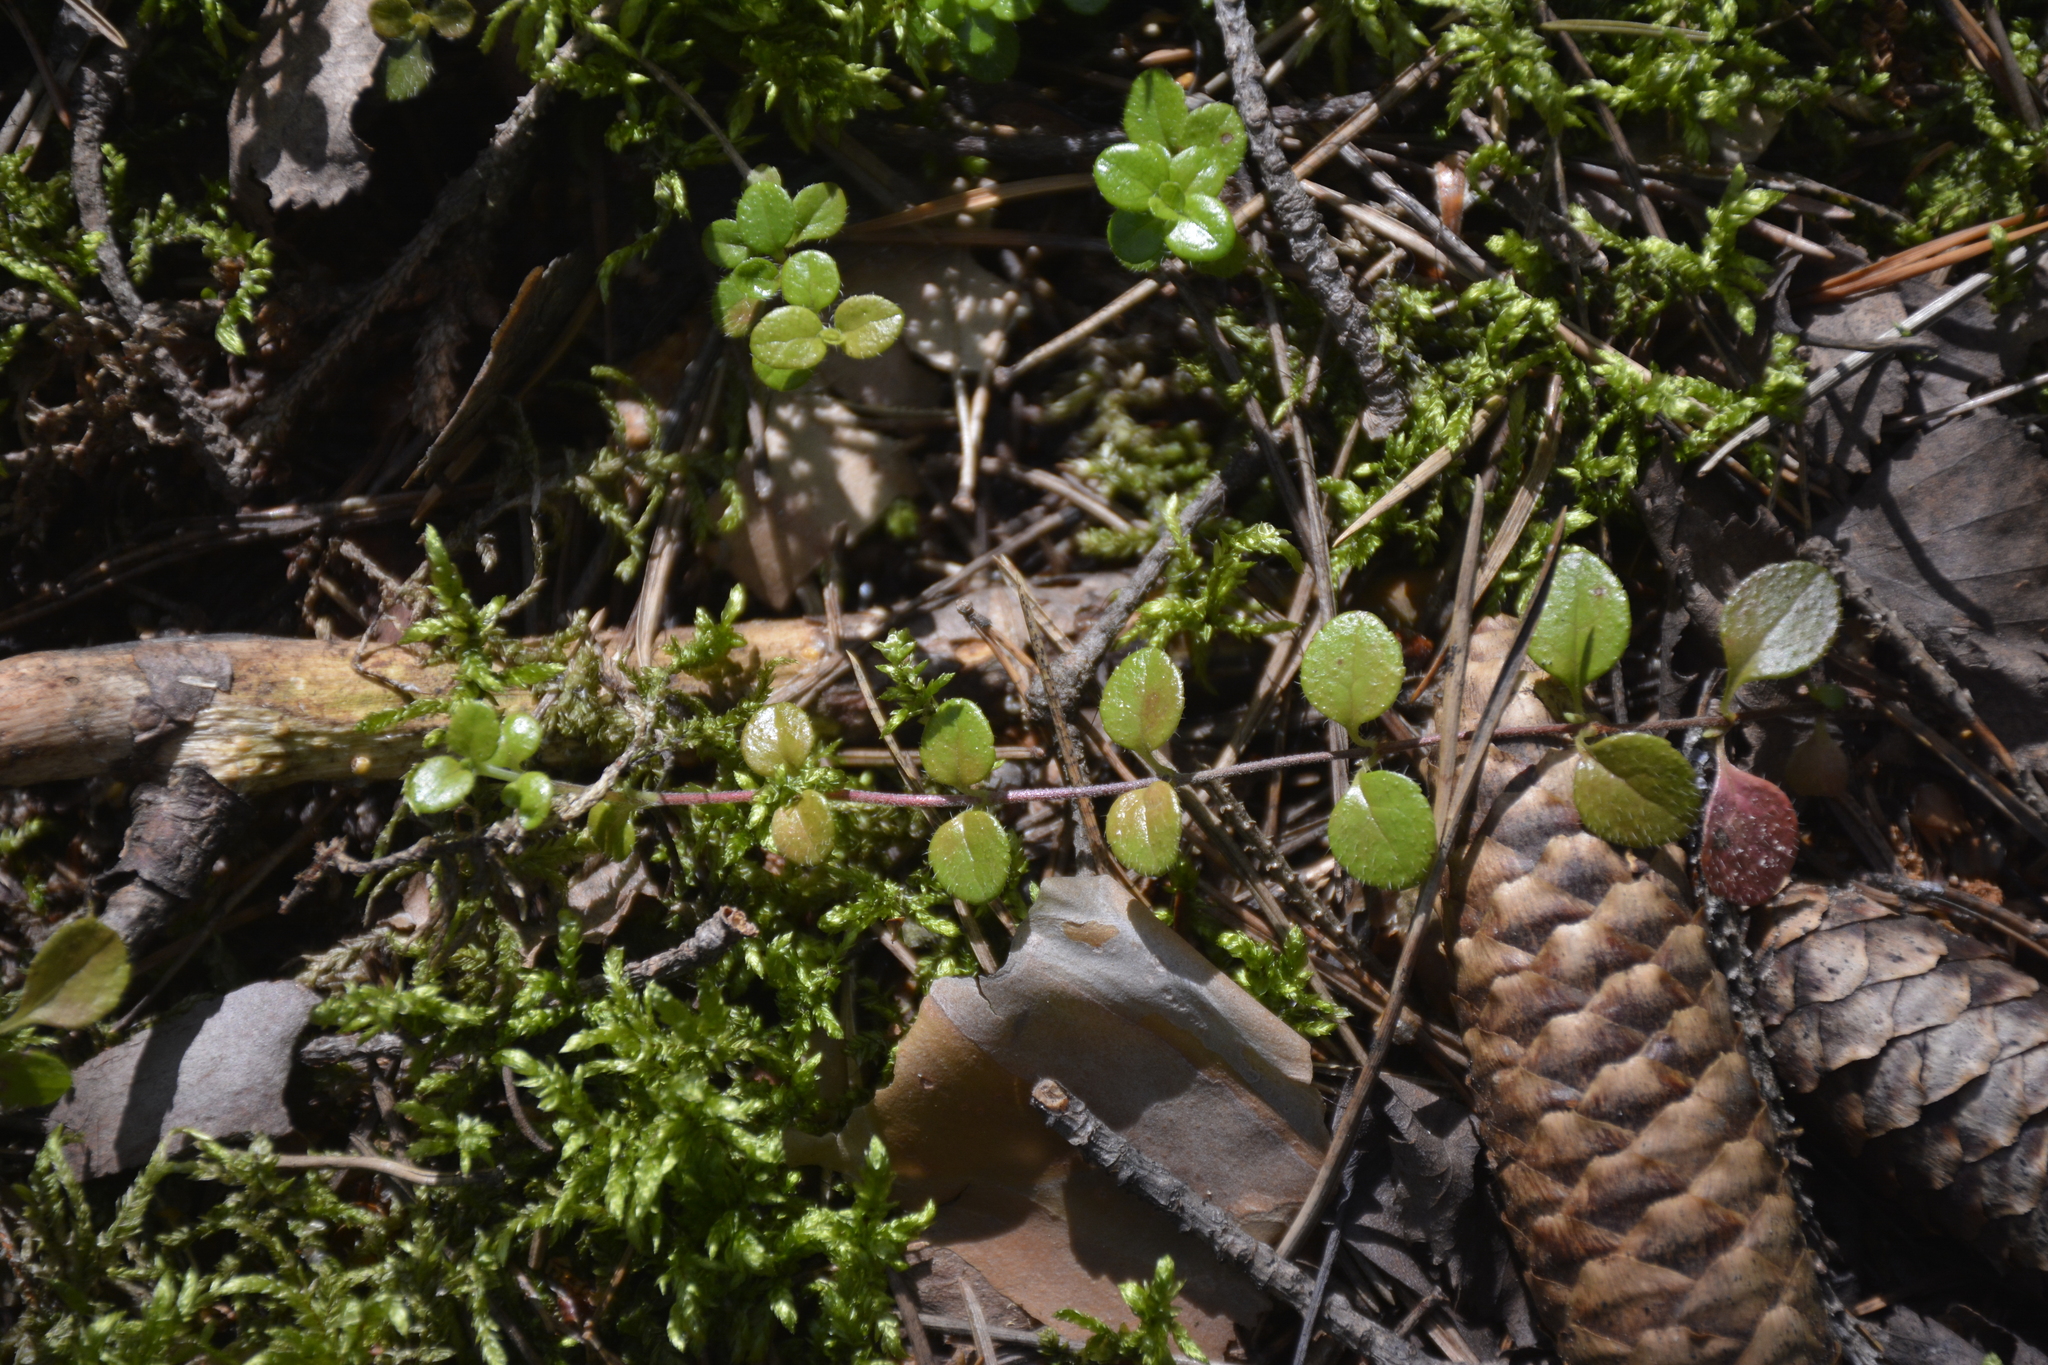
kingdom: Plantae
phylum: Tracheophyta
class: Magnoliopsida
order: Dipsacales
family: Caprifoliaceae
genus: Linnaea
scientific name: Linnaea borealis
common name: Twinflower
